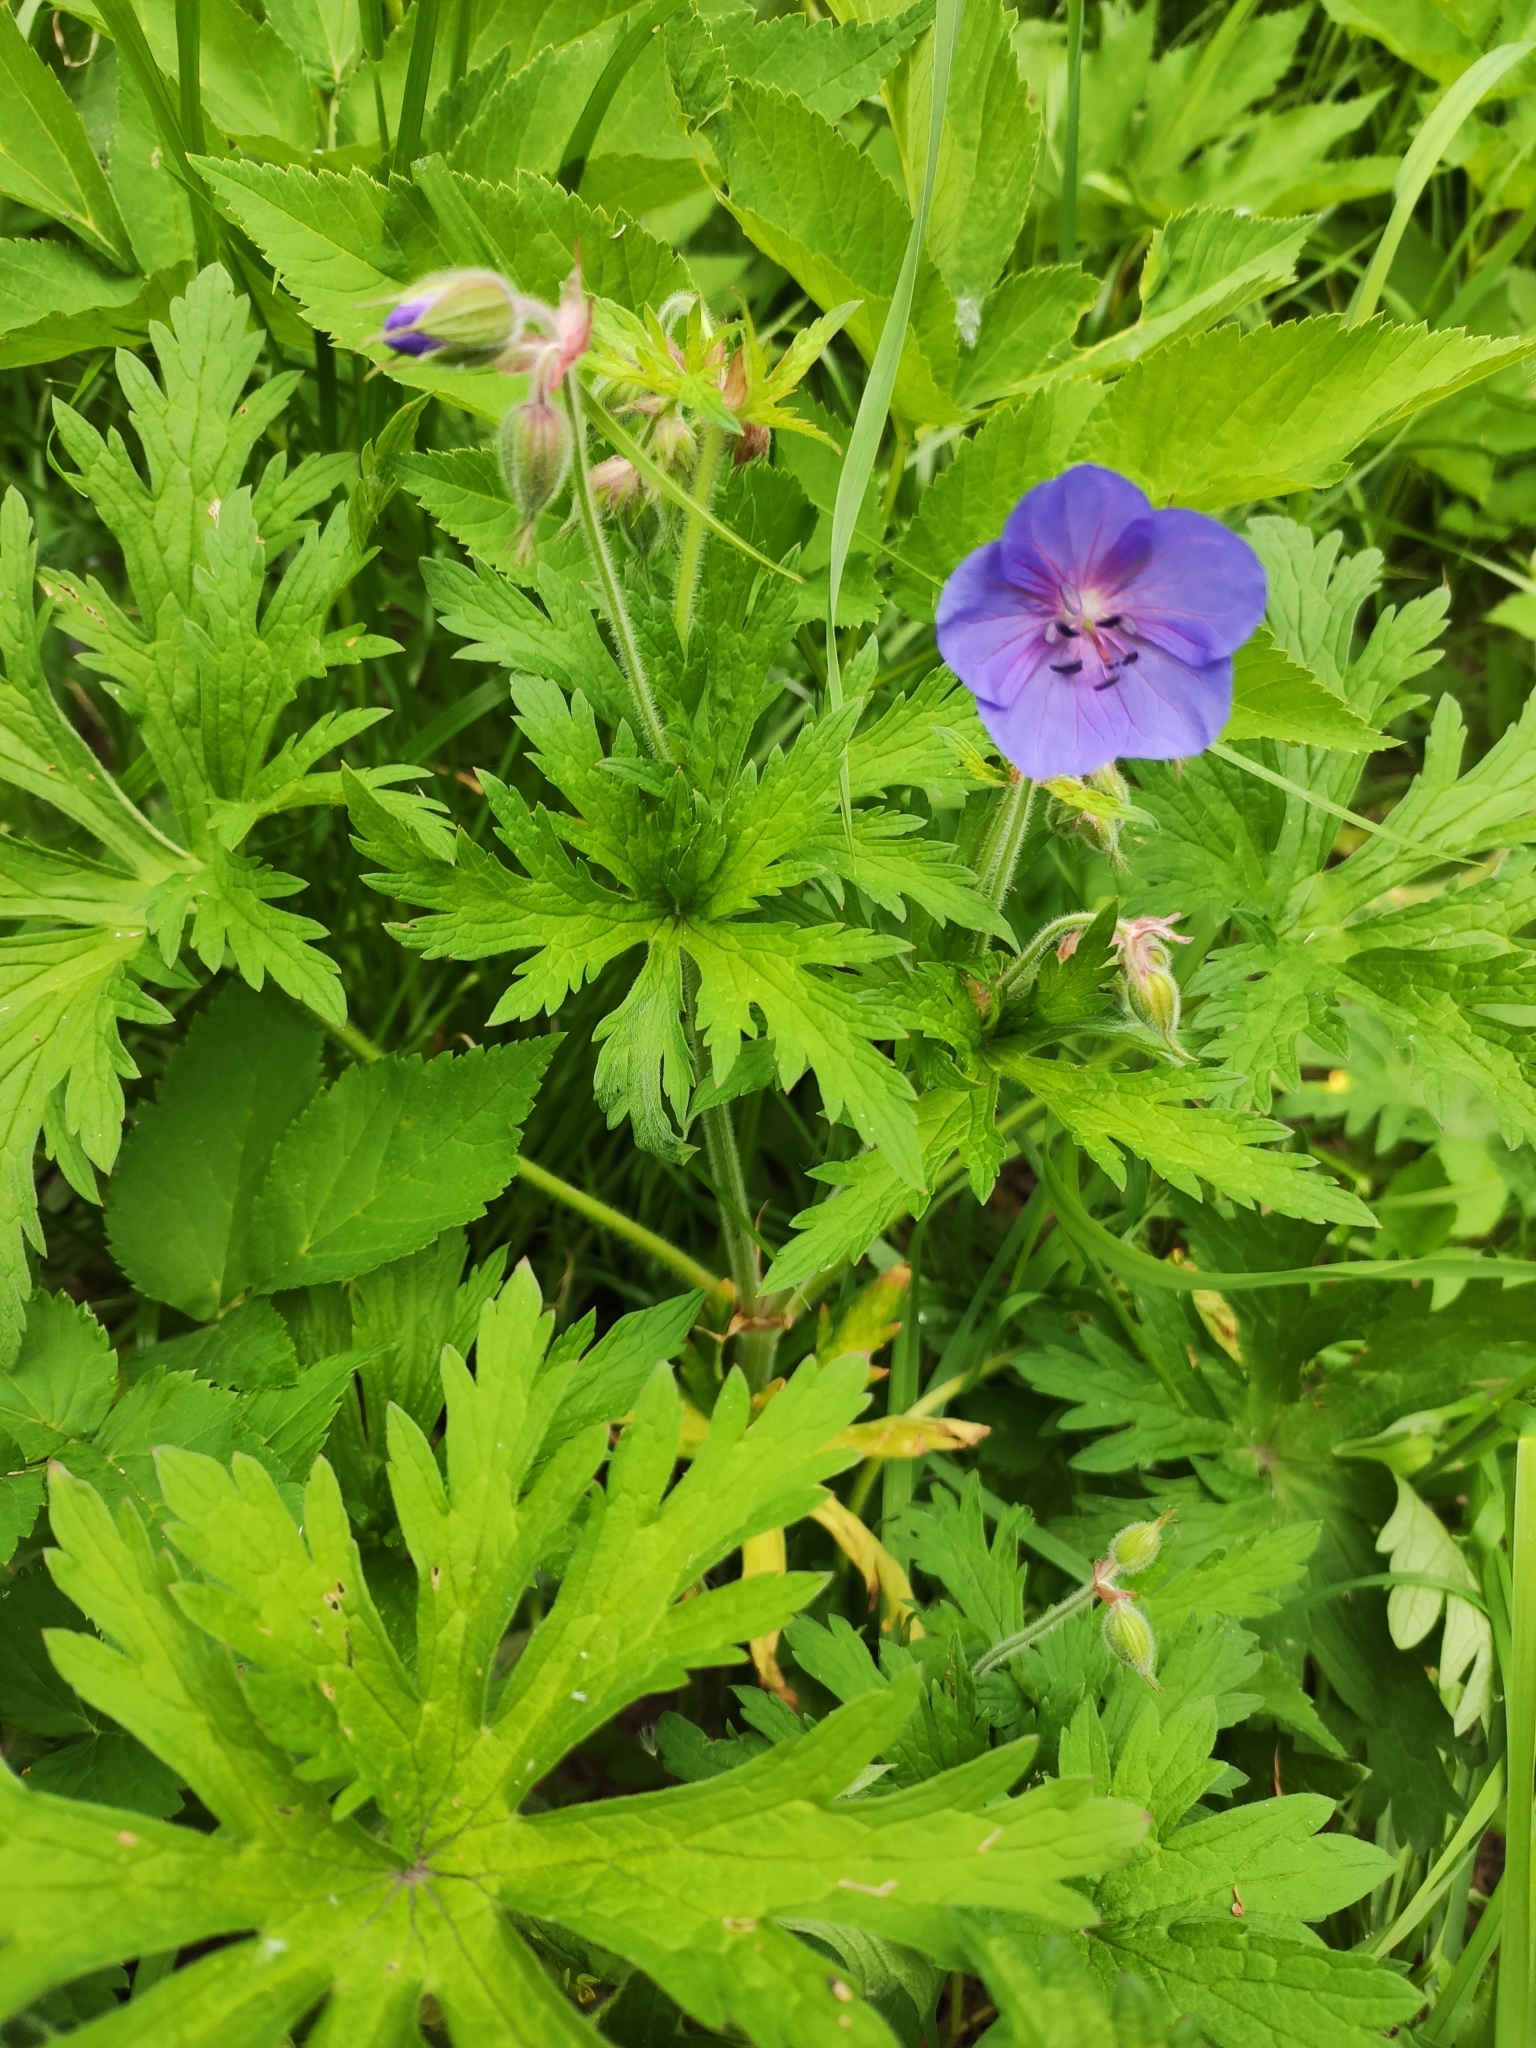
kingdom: Plantae
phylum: Tracheophyta
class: Magnoliopsida
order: Geraniales
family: Geraniaceae
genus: Geranium
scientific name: Geranium pratense
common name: Meadow crane's-bill
